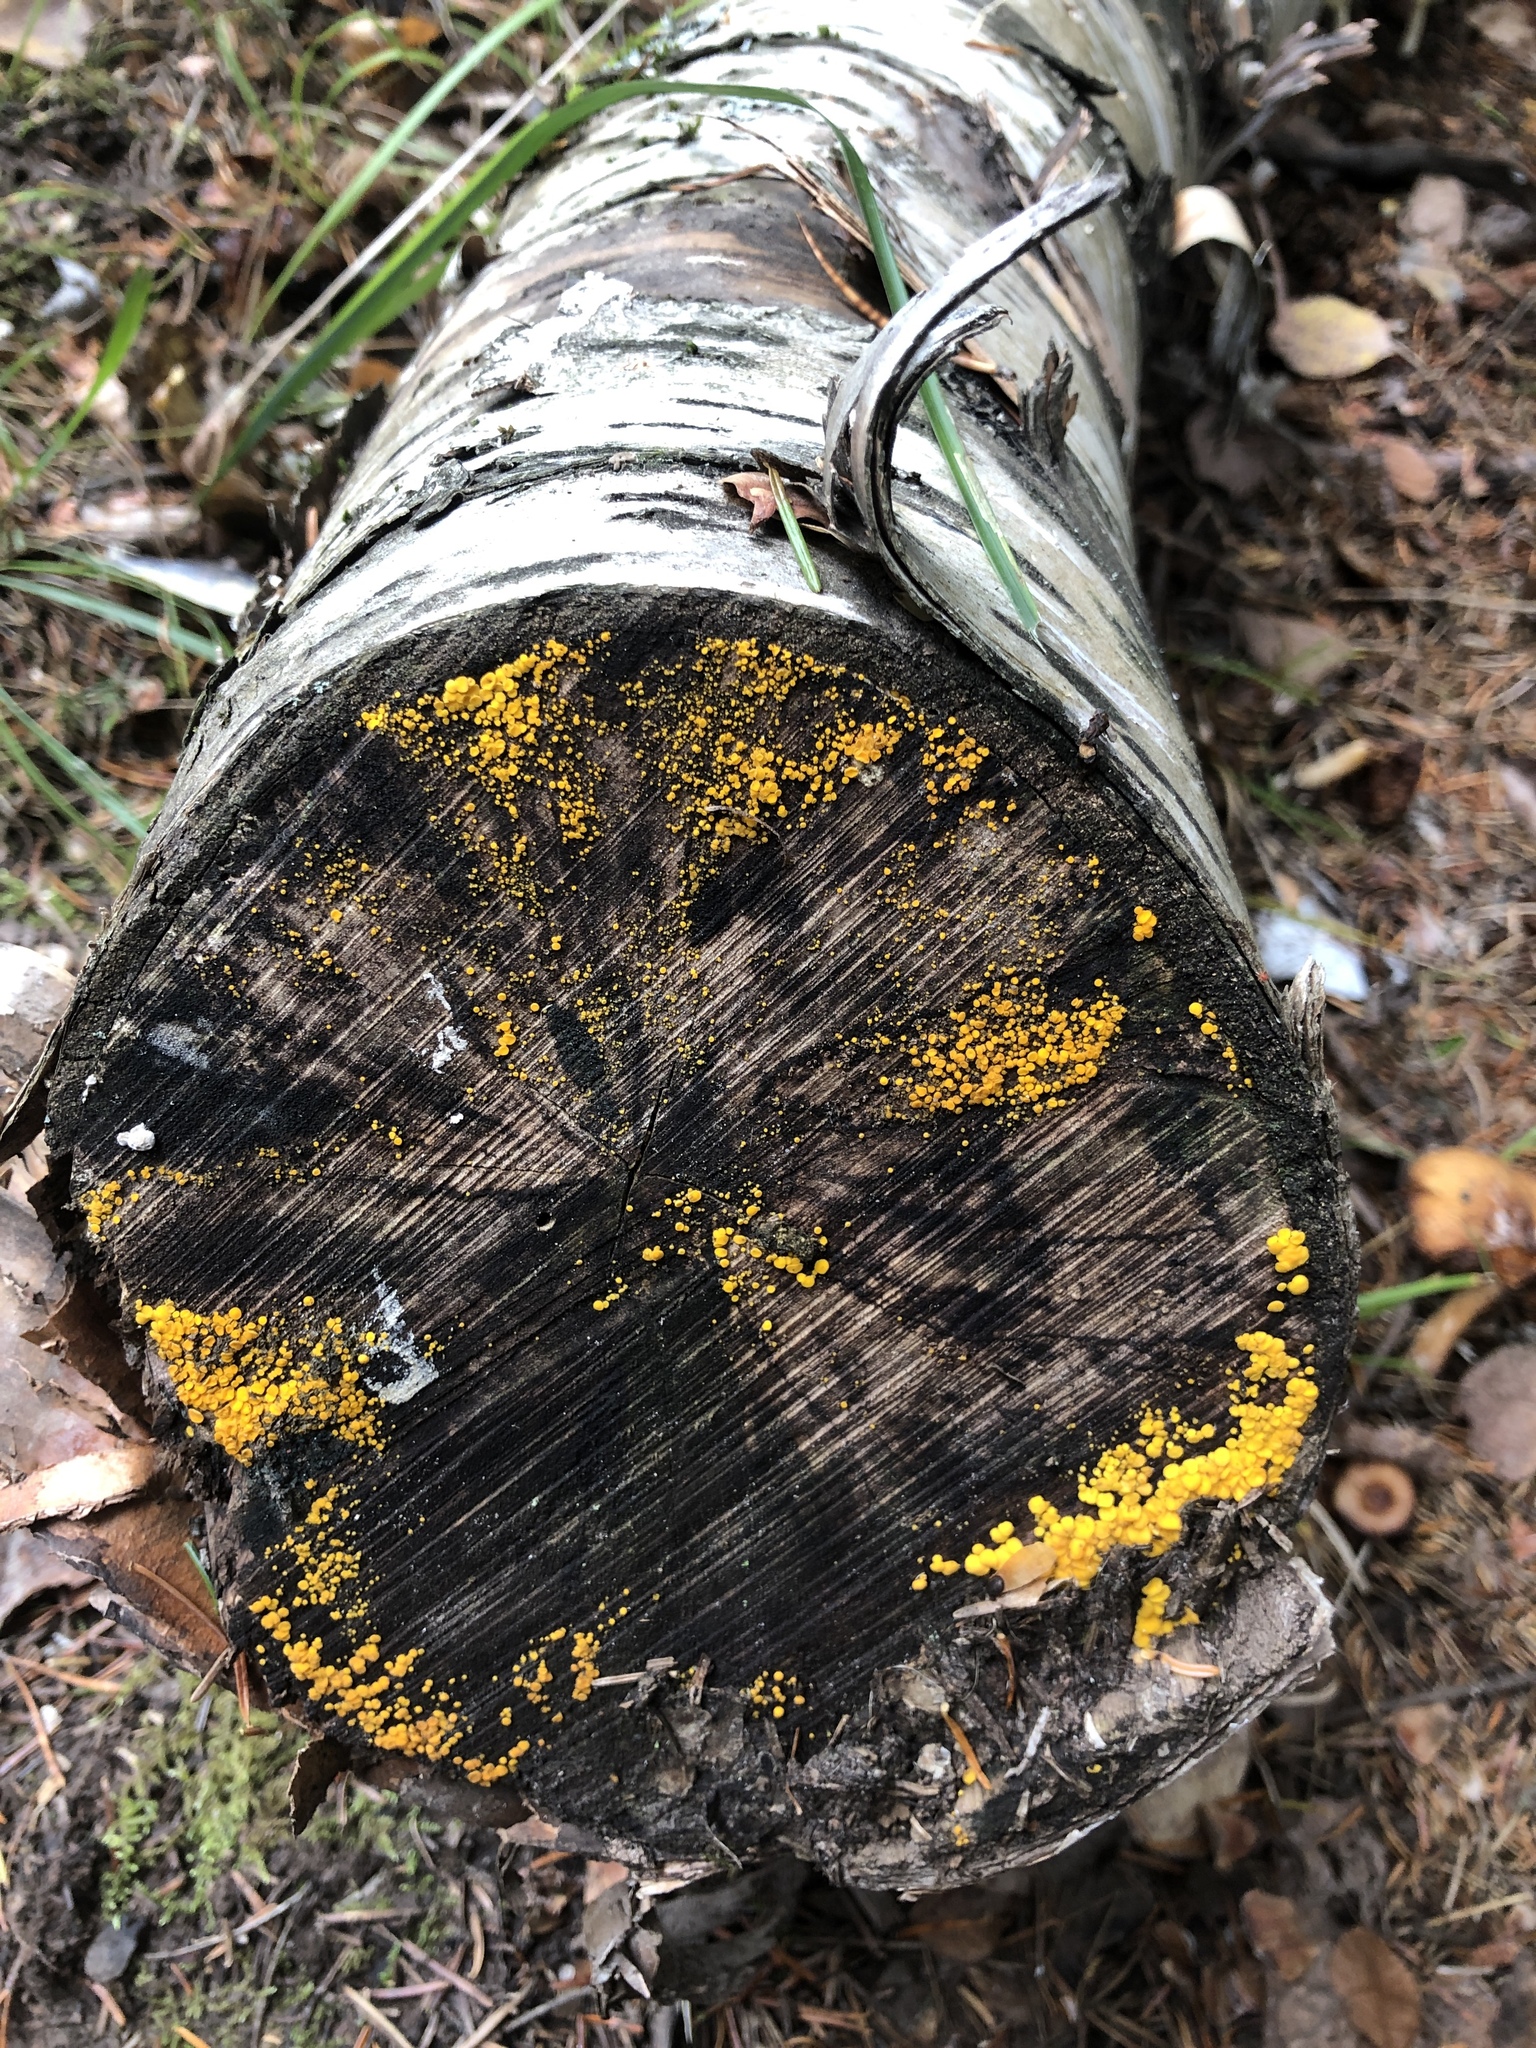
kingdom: Fungi
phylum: Ascomycota
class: Leotiomycetes
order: Helotiales
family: Pezizellaceae
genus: Calycina
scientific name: Calycina citrina
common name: Yellow fairy cups
